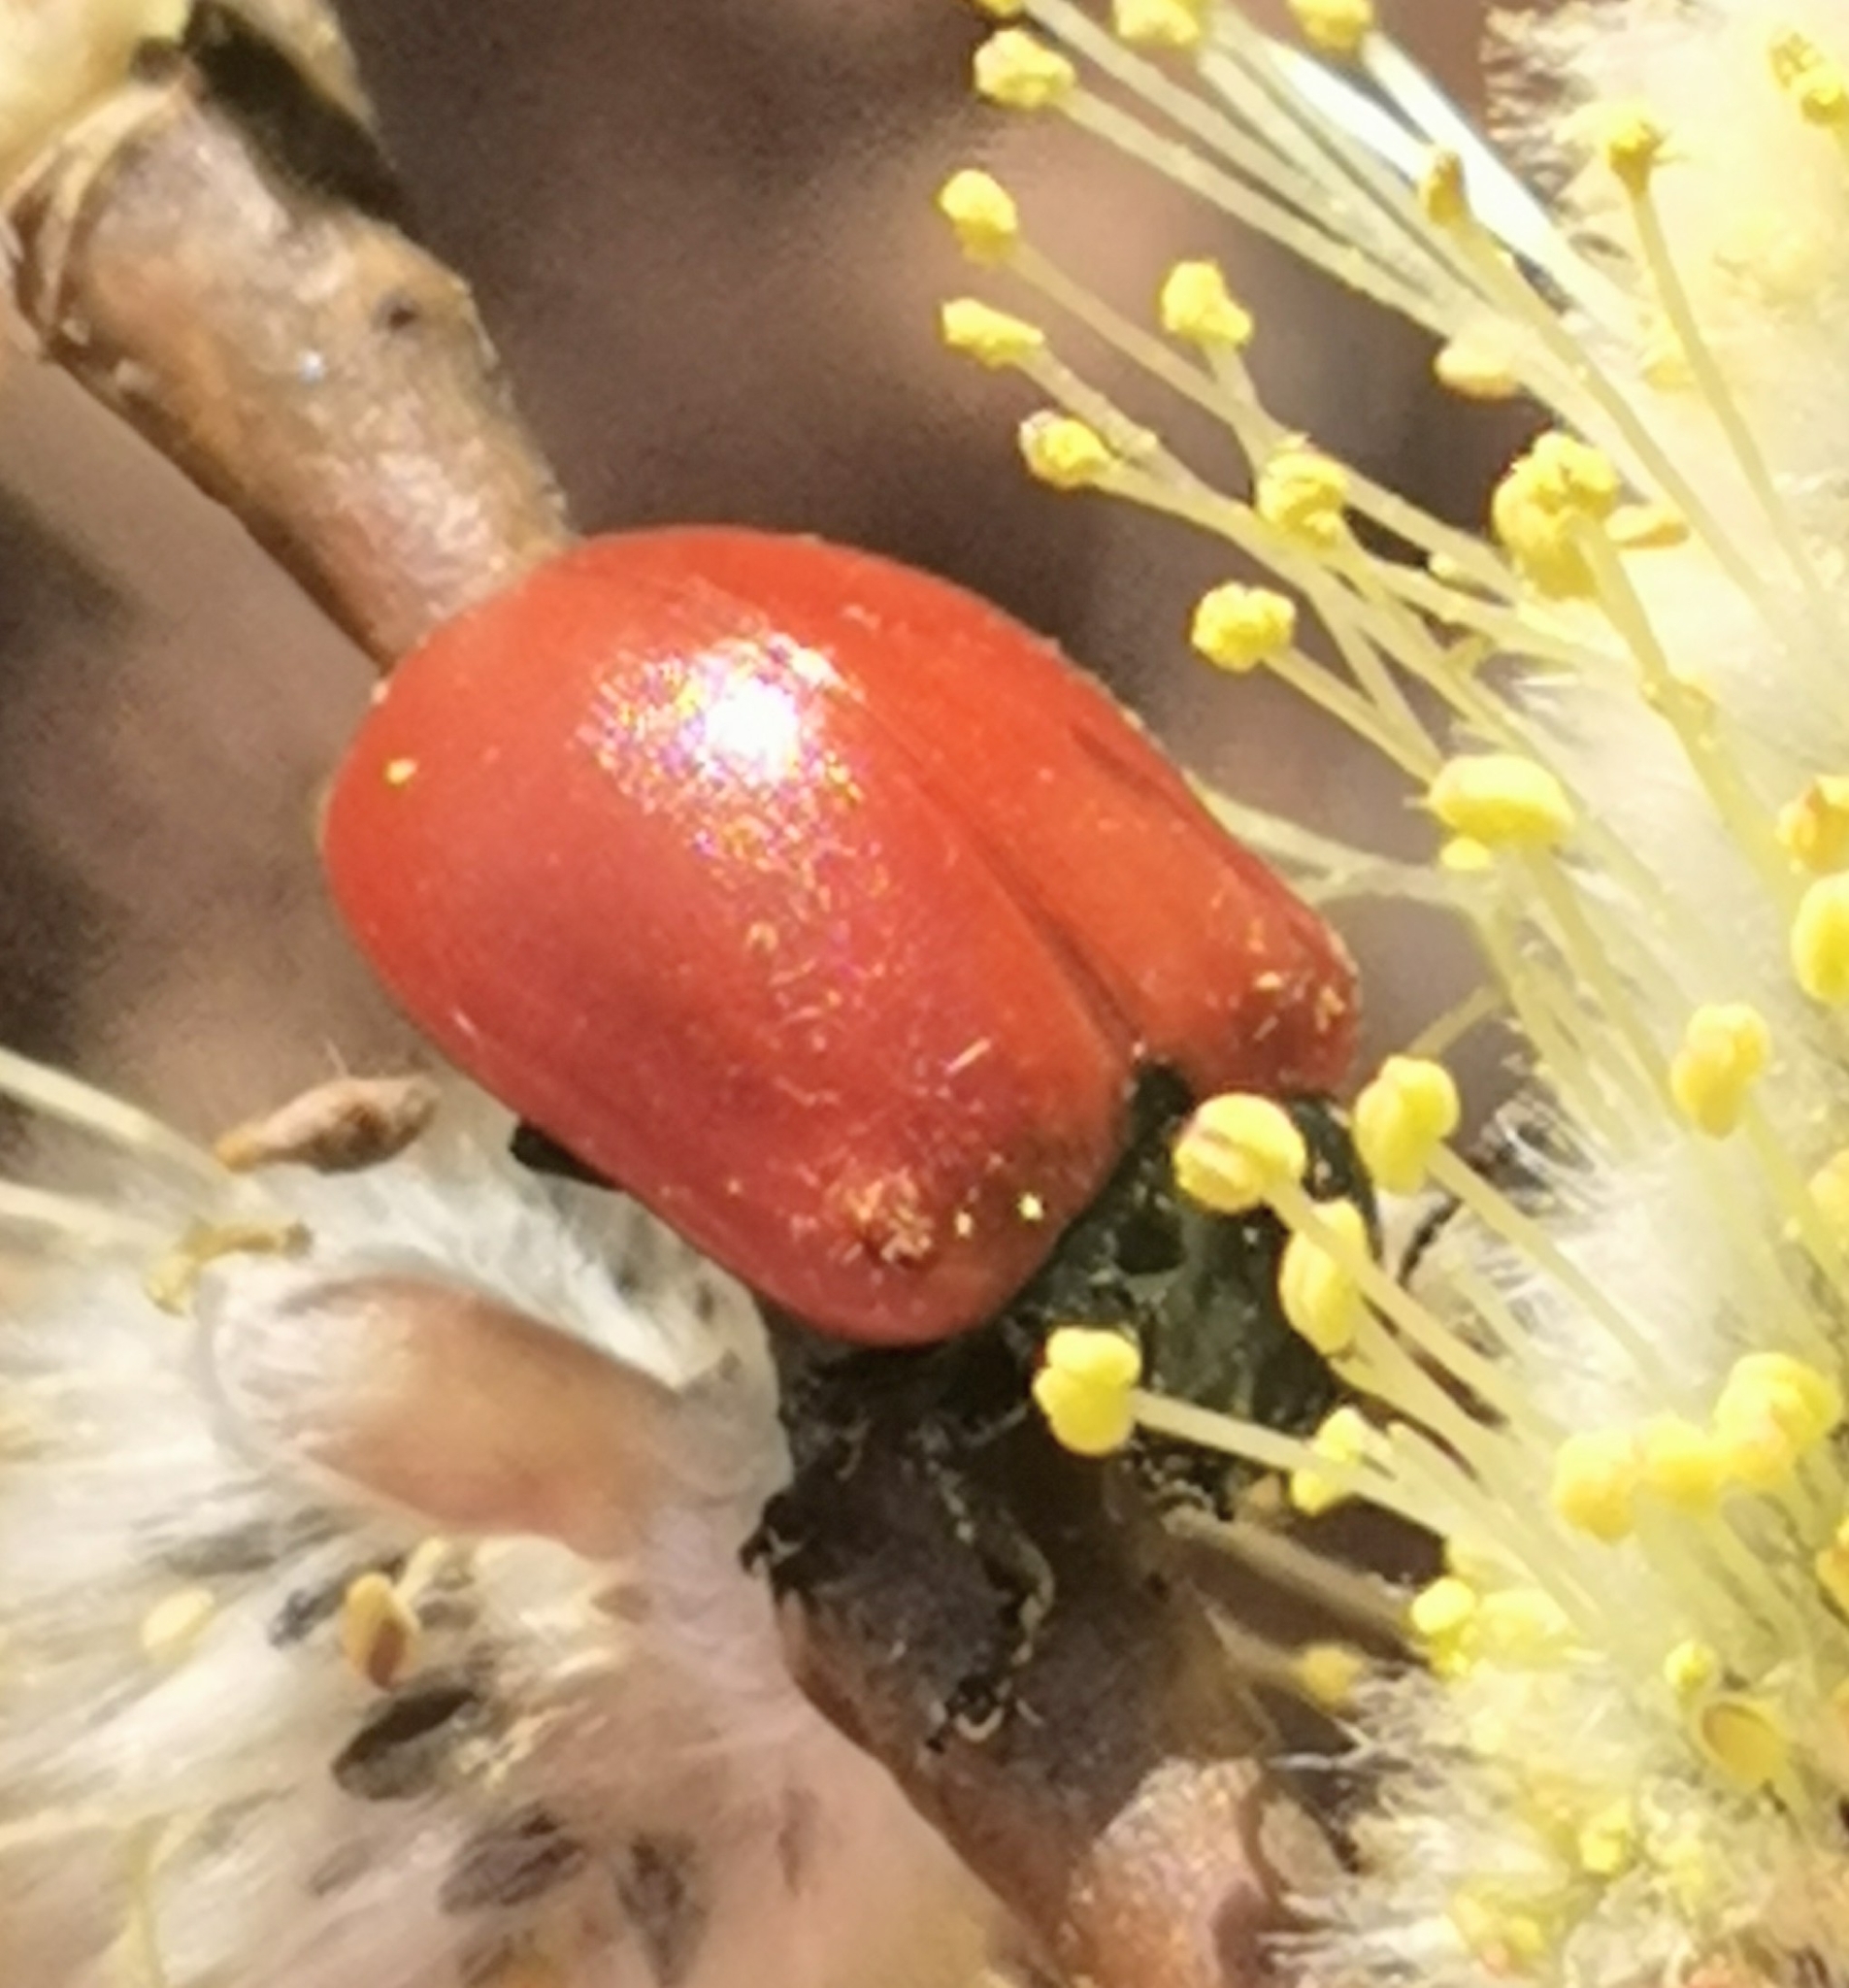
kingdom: Animalia
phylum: Arthropoda
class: Insecta
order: Coleoptera
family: Chrysomelidae
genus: Chrysomela
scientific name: Chrysomela populi
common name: Red poplar leaf beetle
